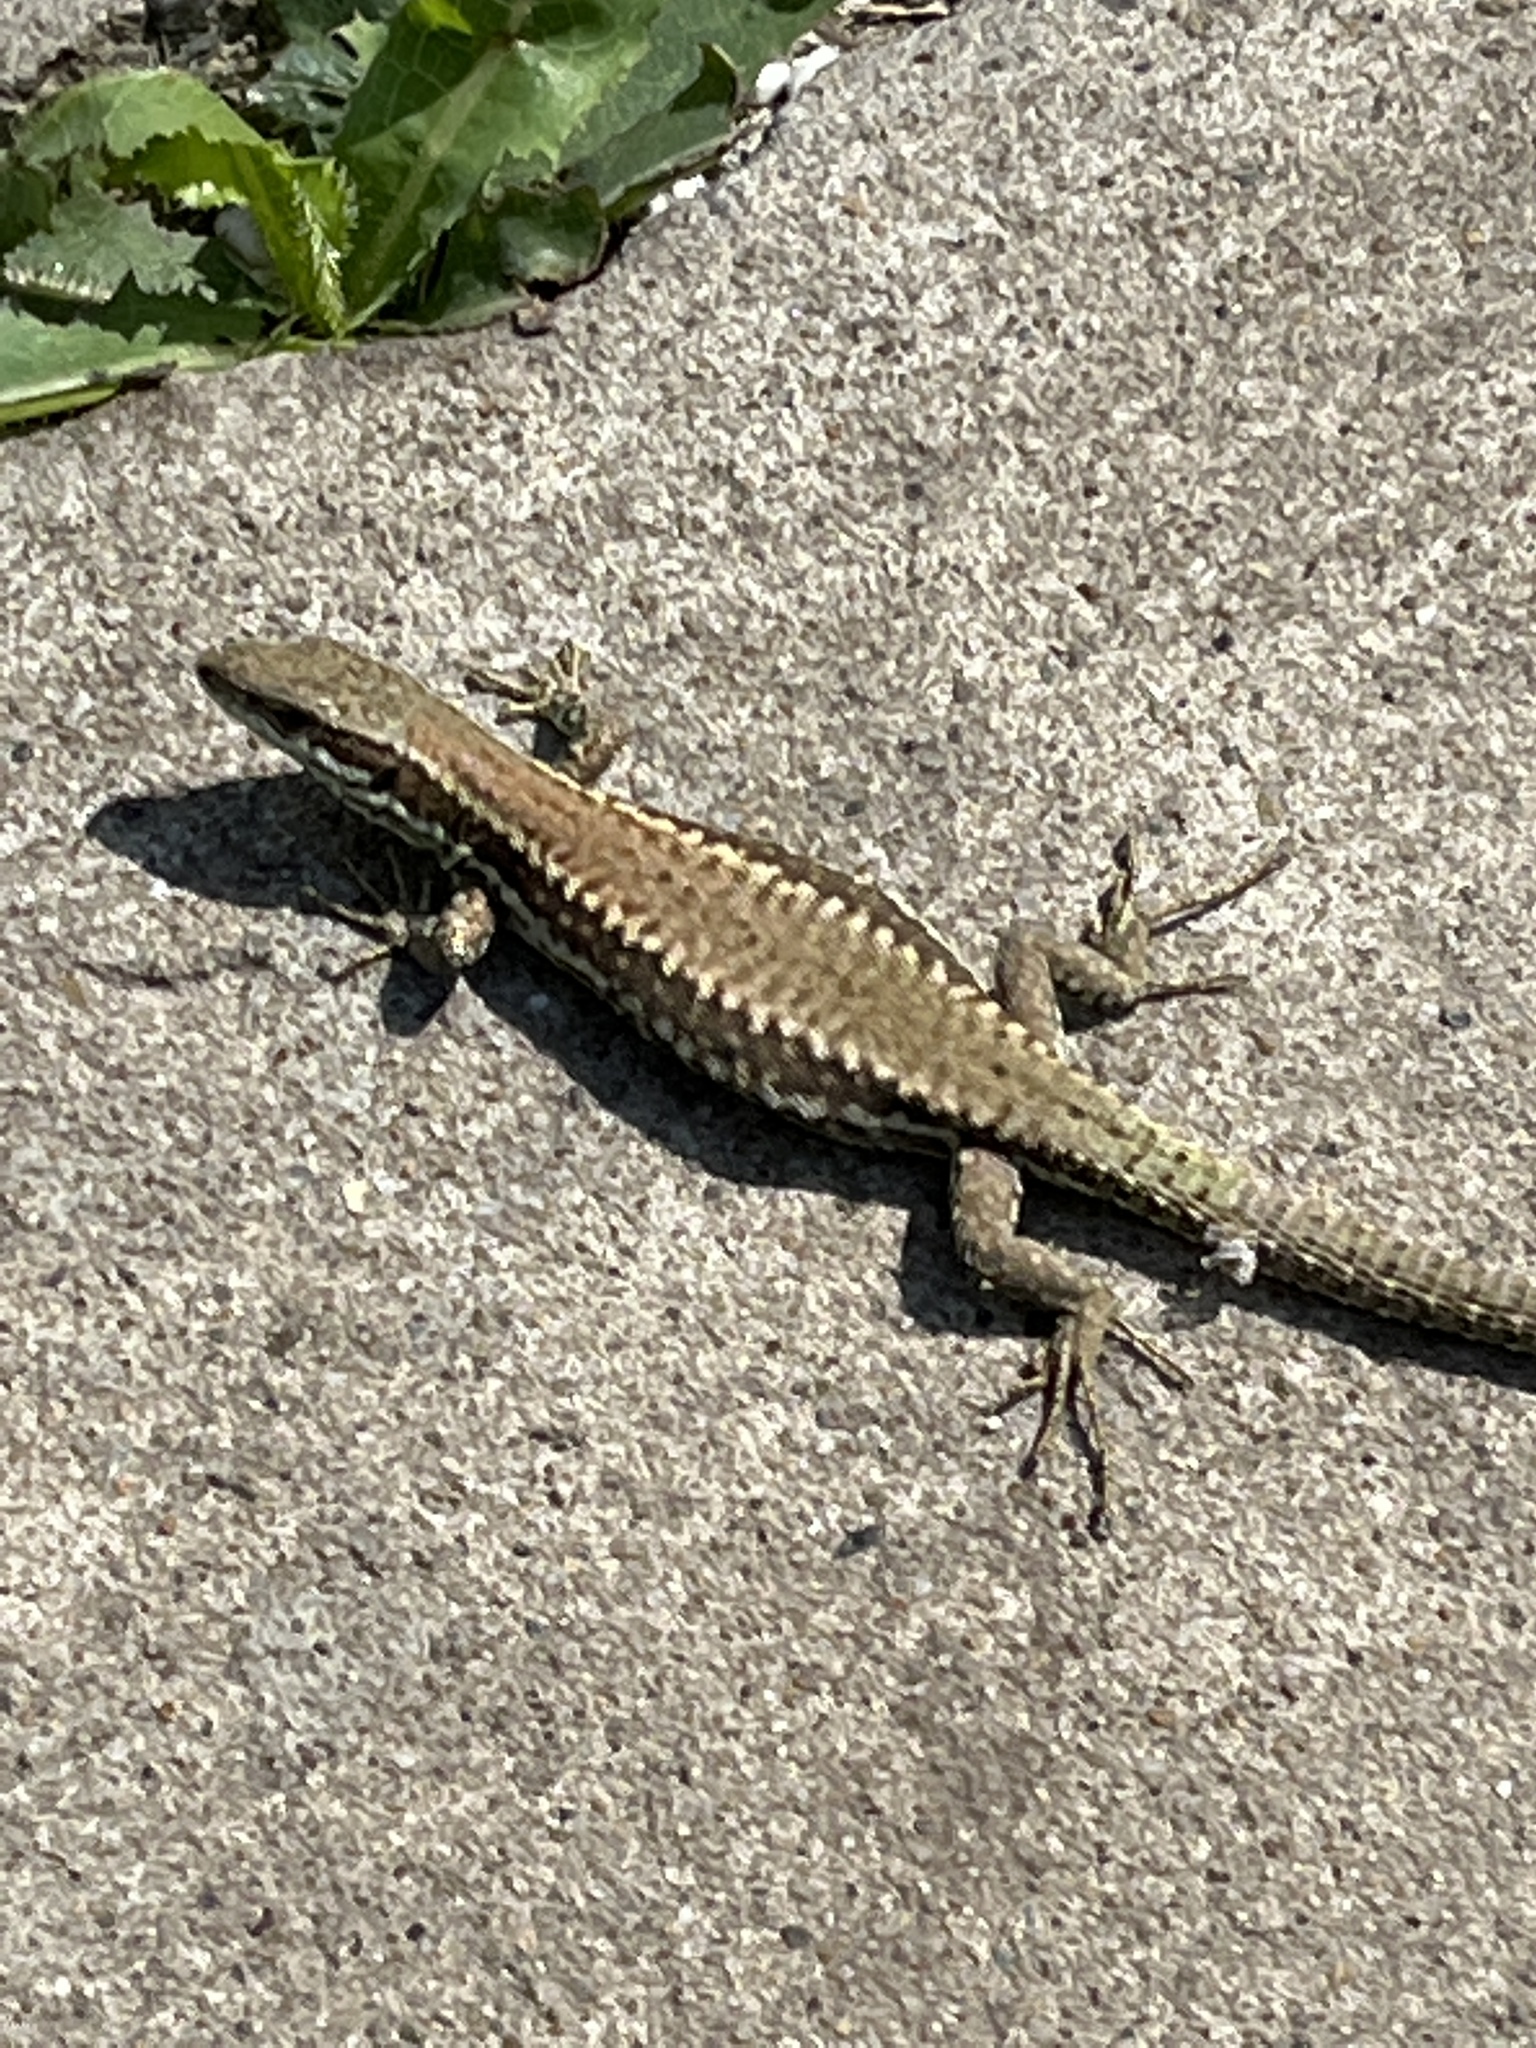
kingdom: Animalia
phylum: Chordata
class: Squamata
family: Lacertidae
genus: Podarcis
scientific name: Podarcis muralis
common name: Common wall lizard
